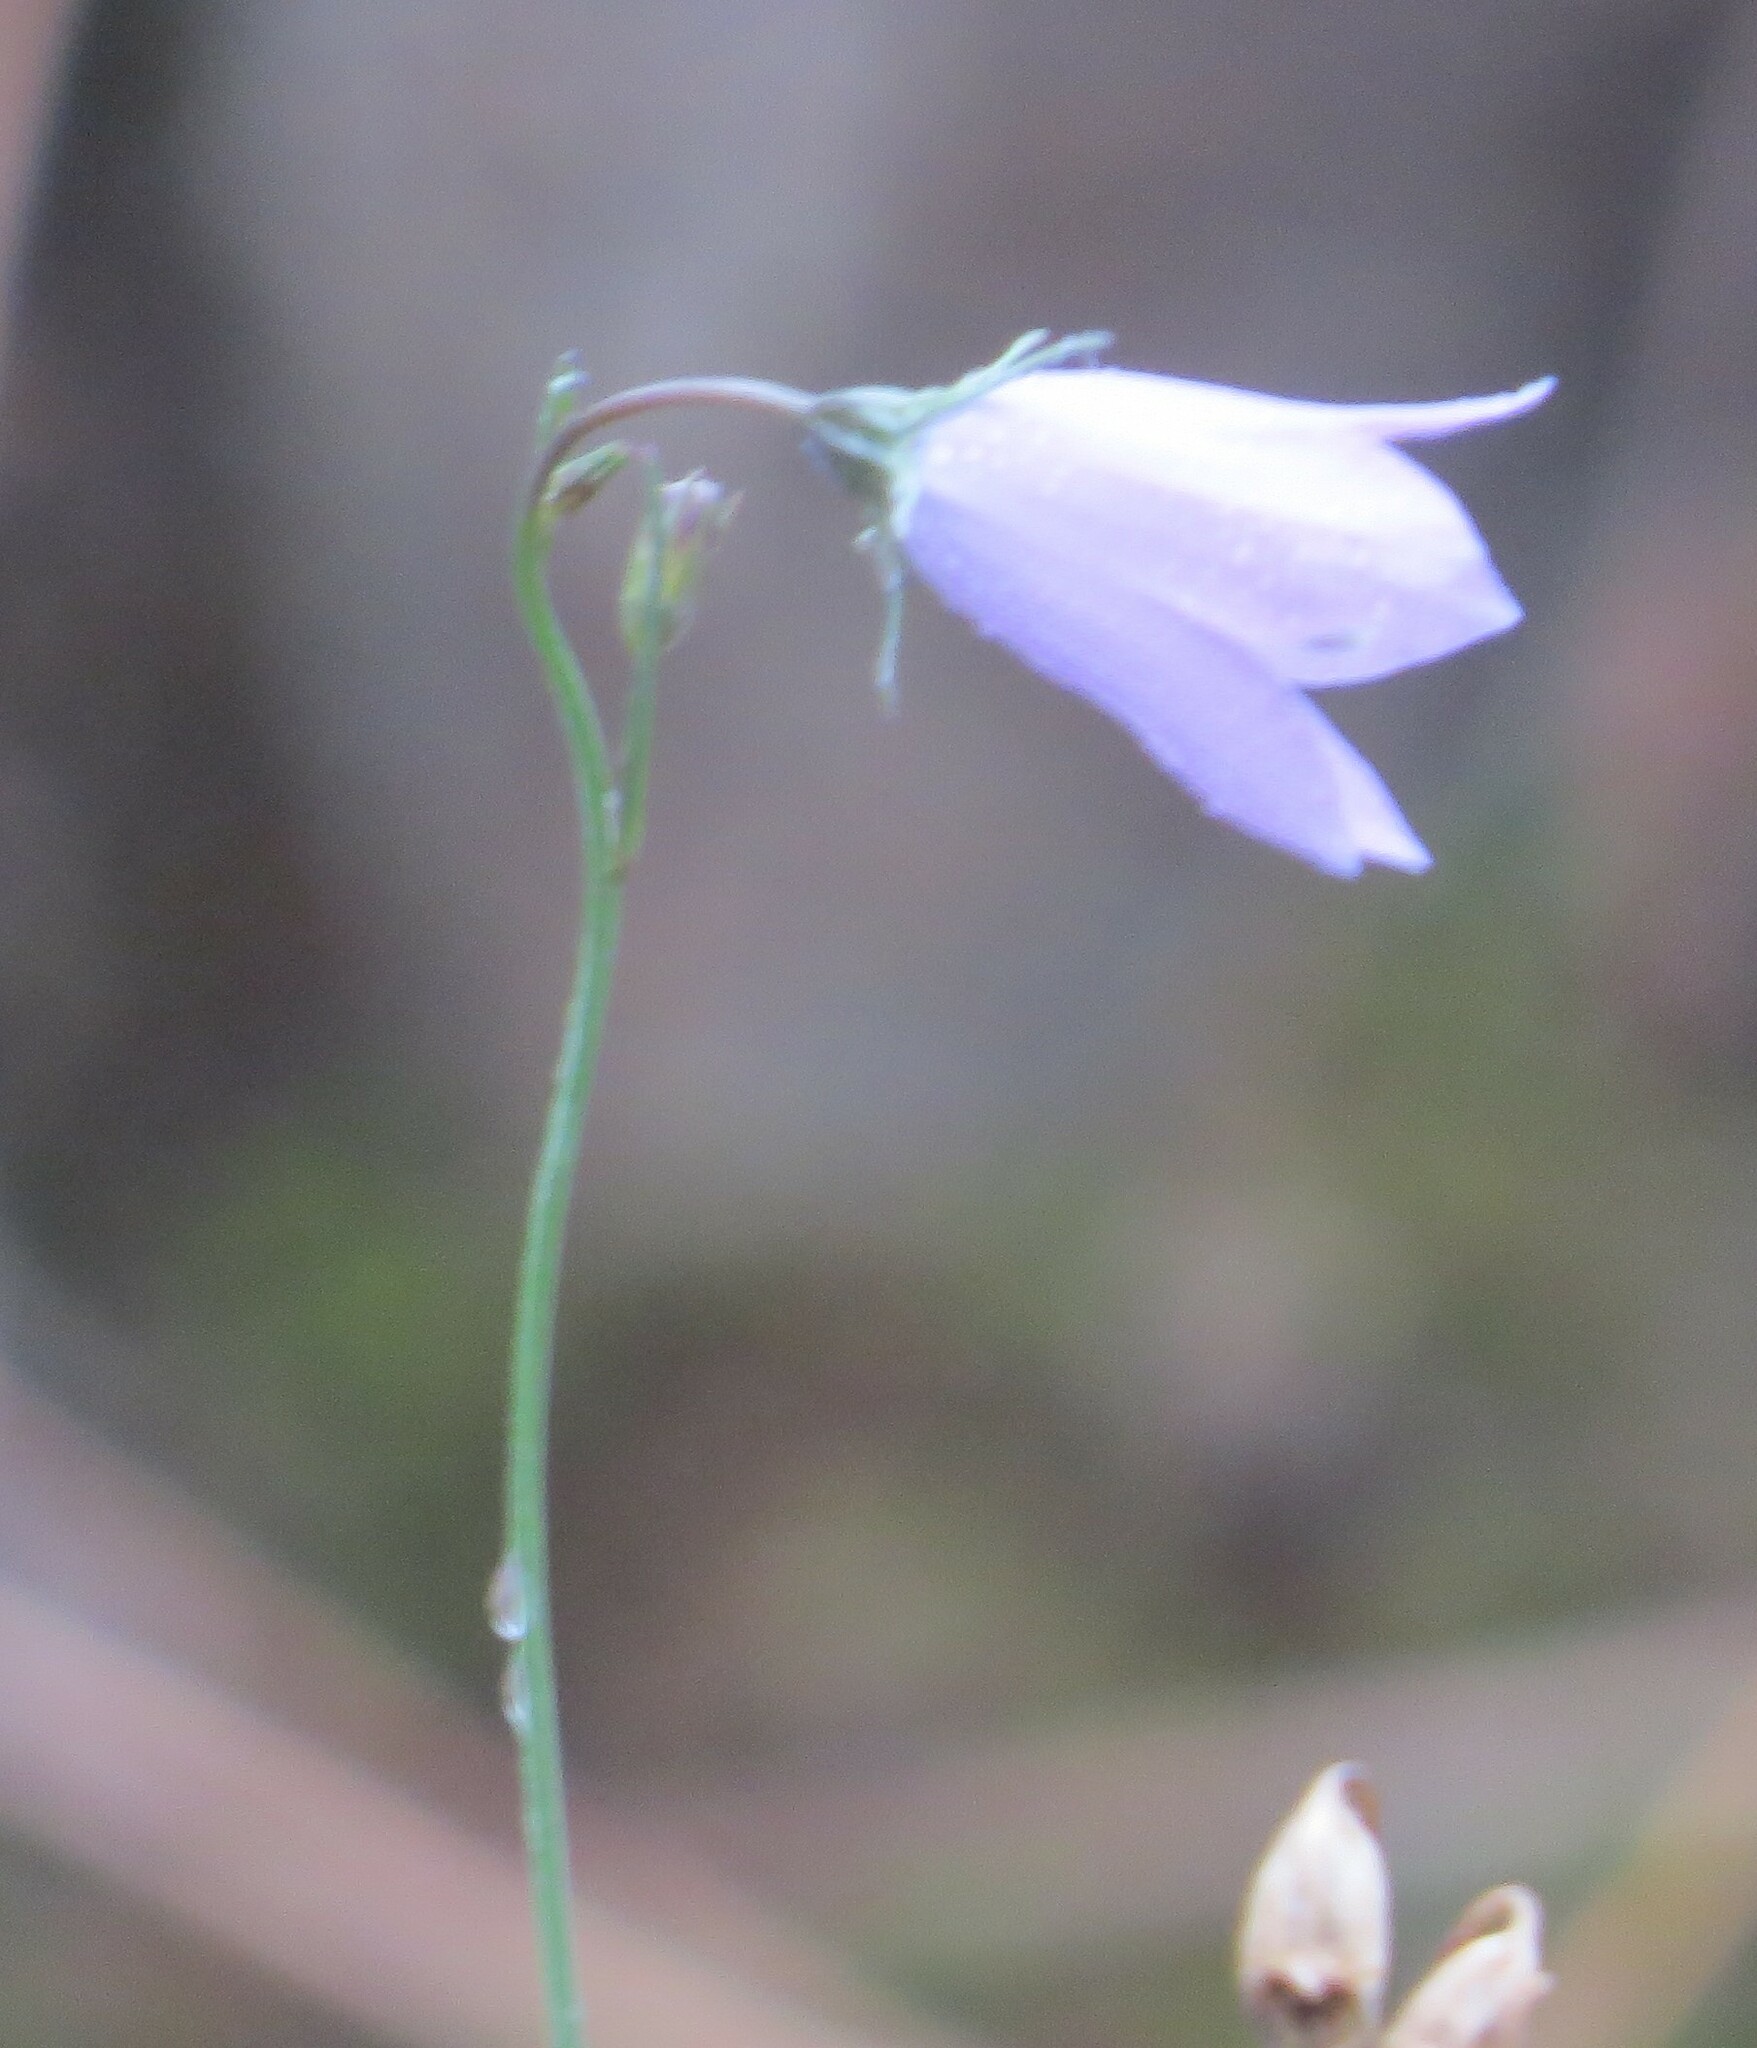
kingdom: Plantae
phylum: Tracheophyta
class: Magnoliopsida
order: Asterales
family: Campanulaceae
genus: Campanula
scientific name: Campanula petiolata
